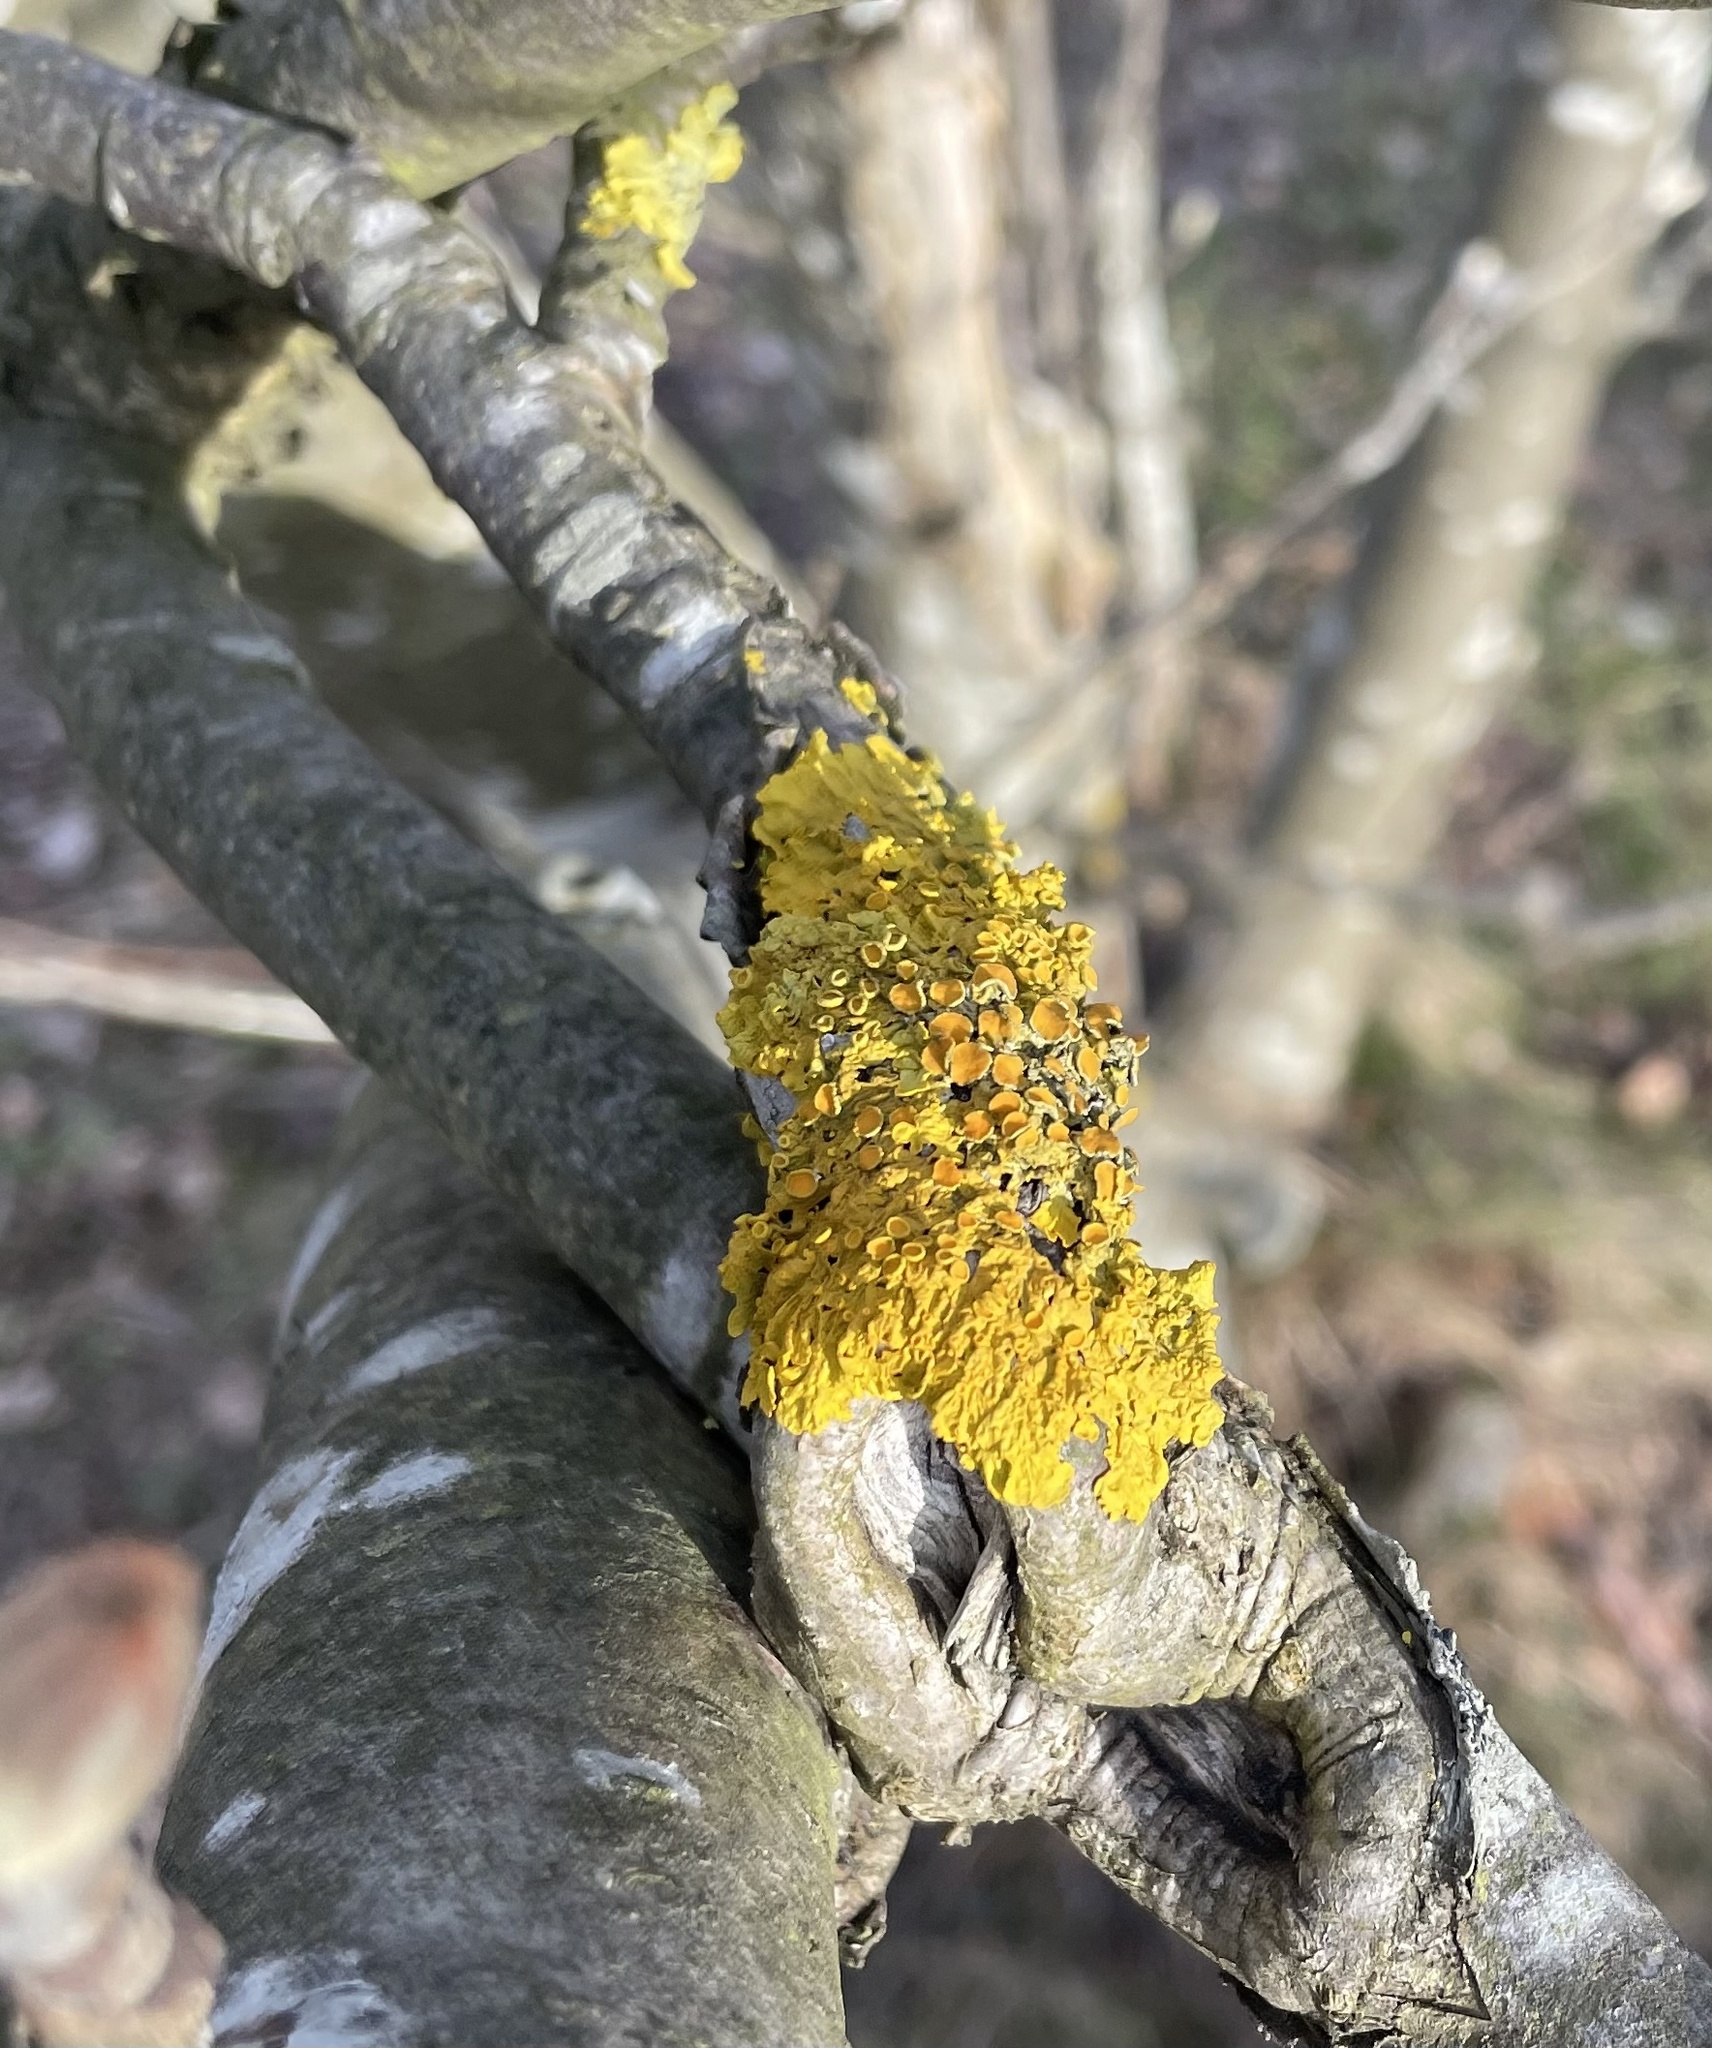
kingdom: Fungi
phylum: Ascomycota
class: Lecanoromycetes
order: Teloschistales
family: Teloschistaceae
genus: Xanthoria
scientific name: Xanthoria parietina
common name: Common orange lichen
